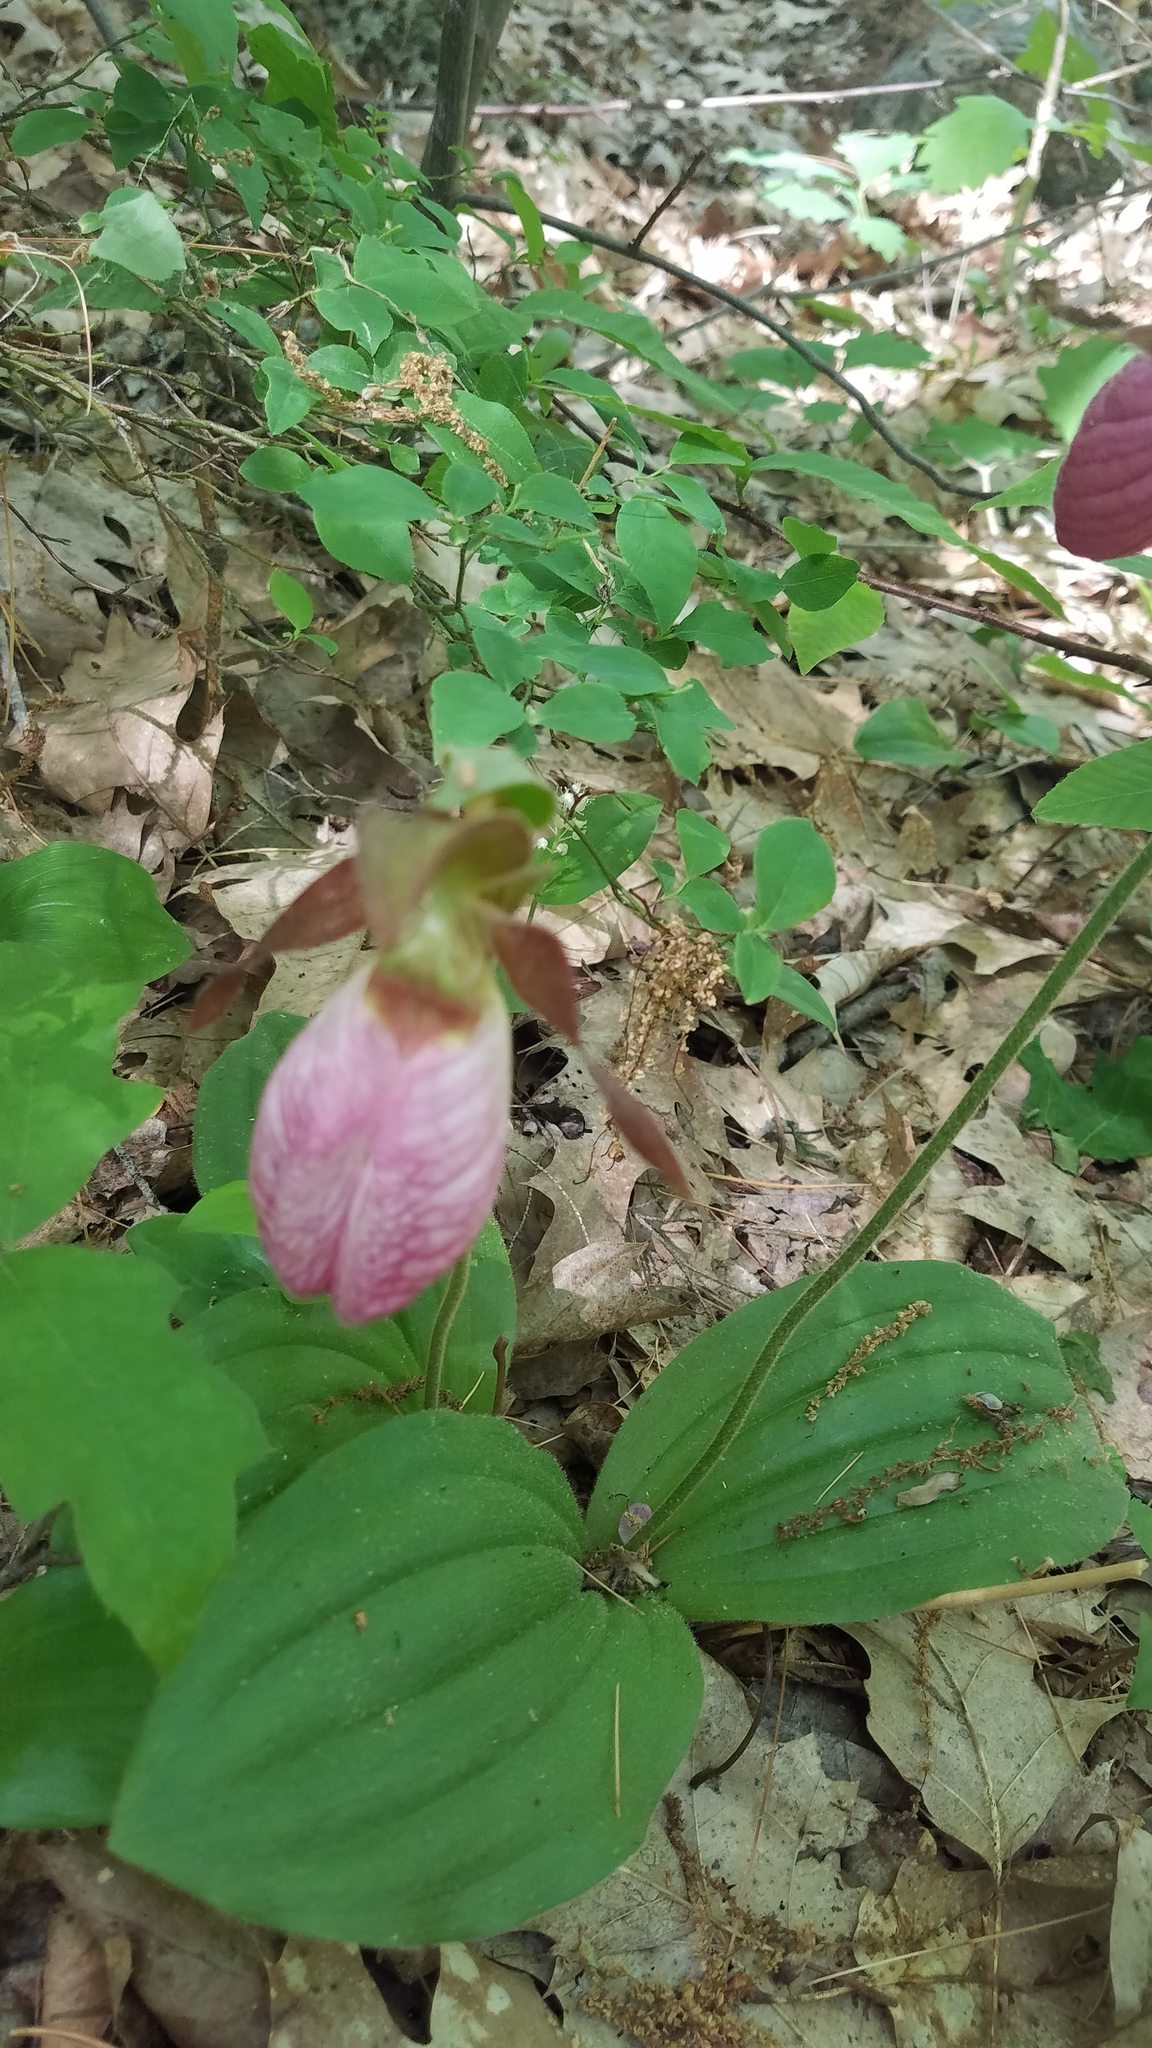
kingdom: Plantae
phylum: Tracheophyta
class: Liliopsida
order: Asparagales
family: Orchidaceae
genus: Cypripedium
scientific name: Cypripedium acaule
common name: Pink lady's-slipper
